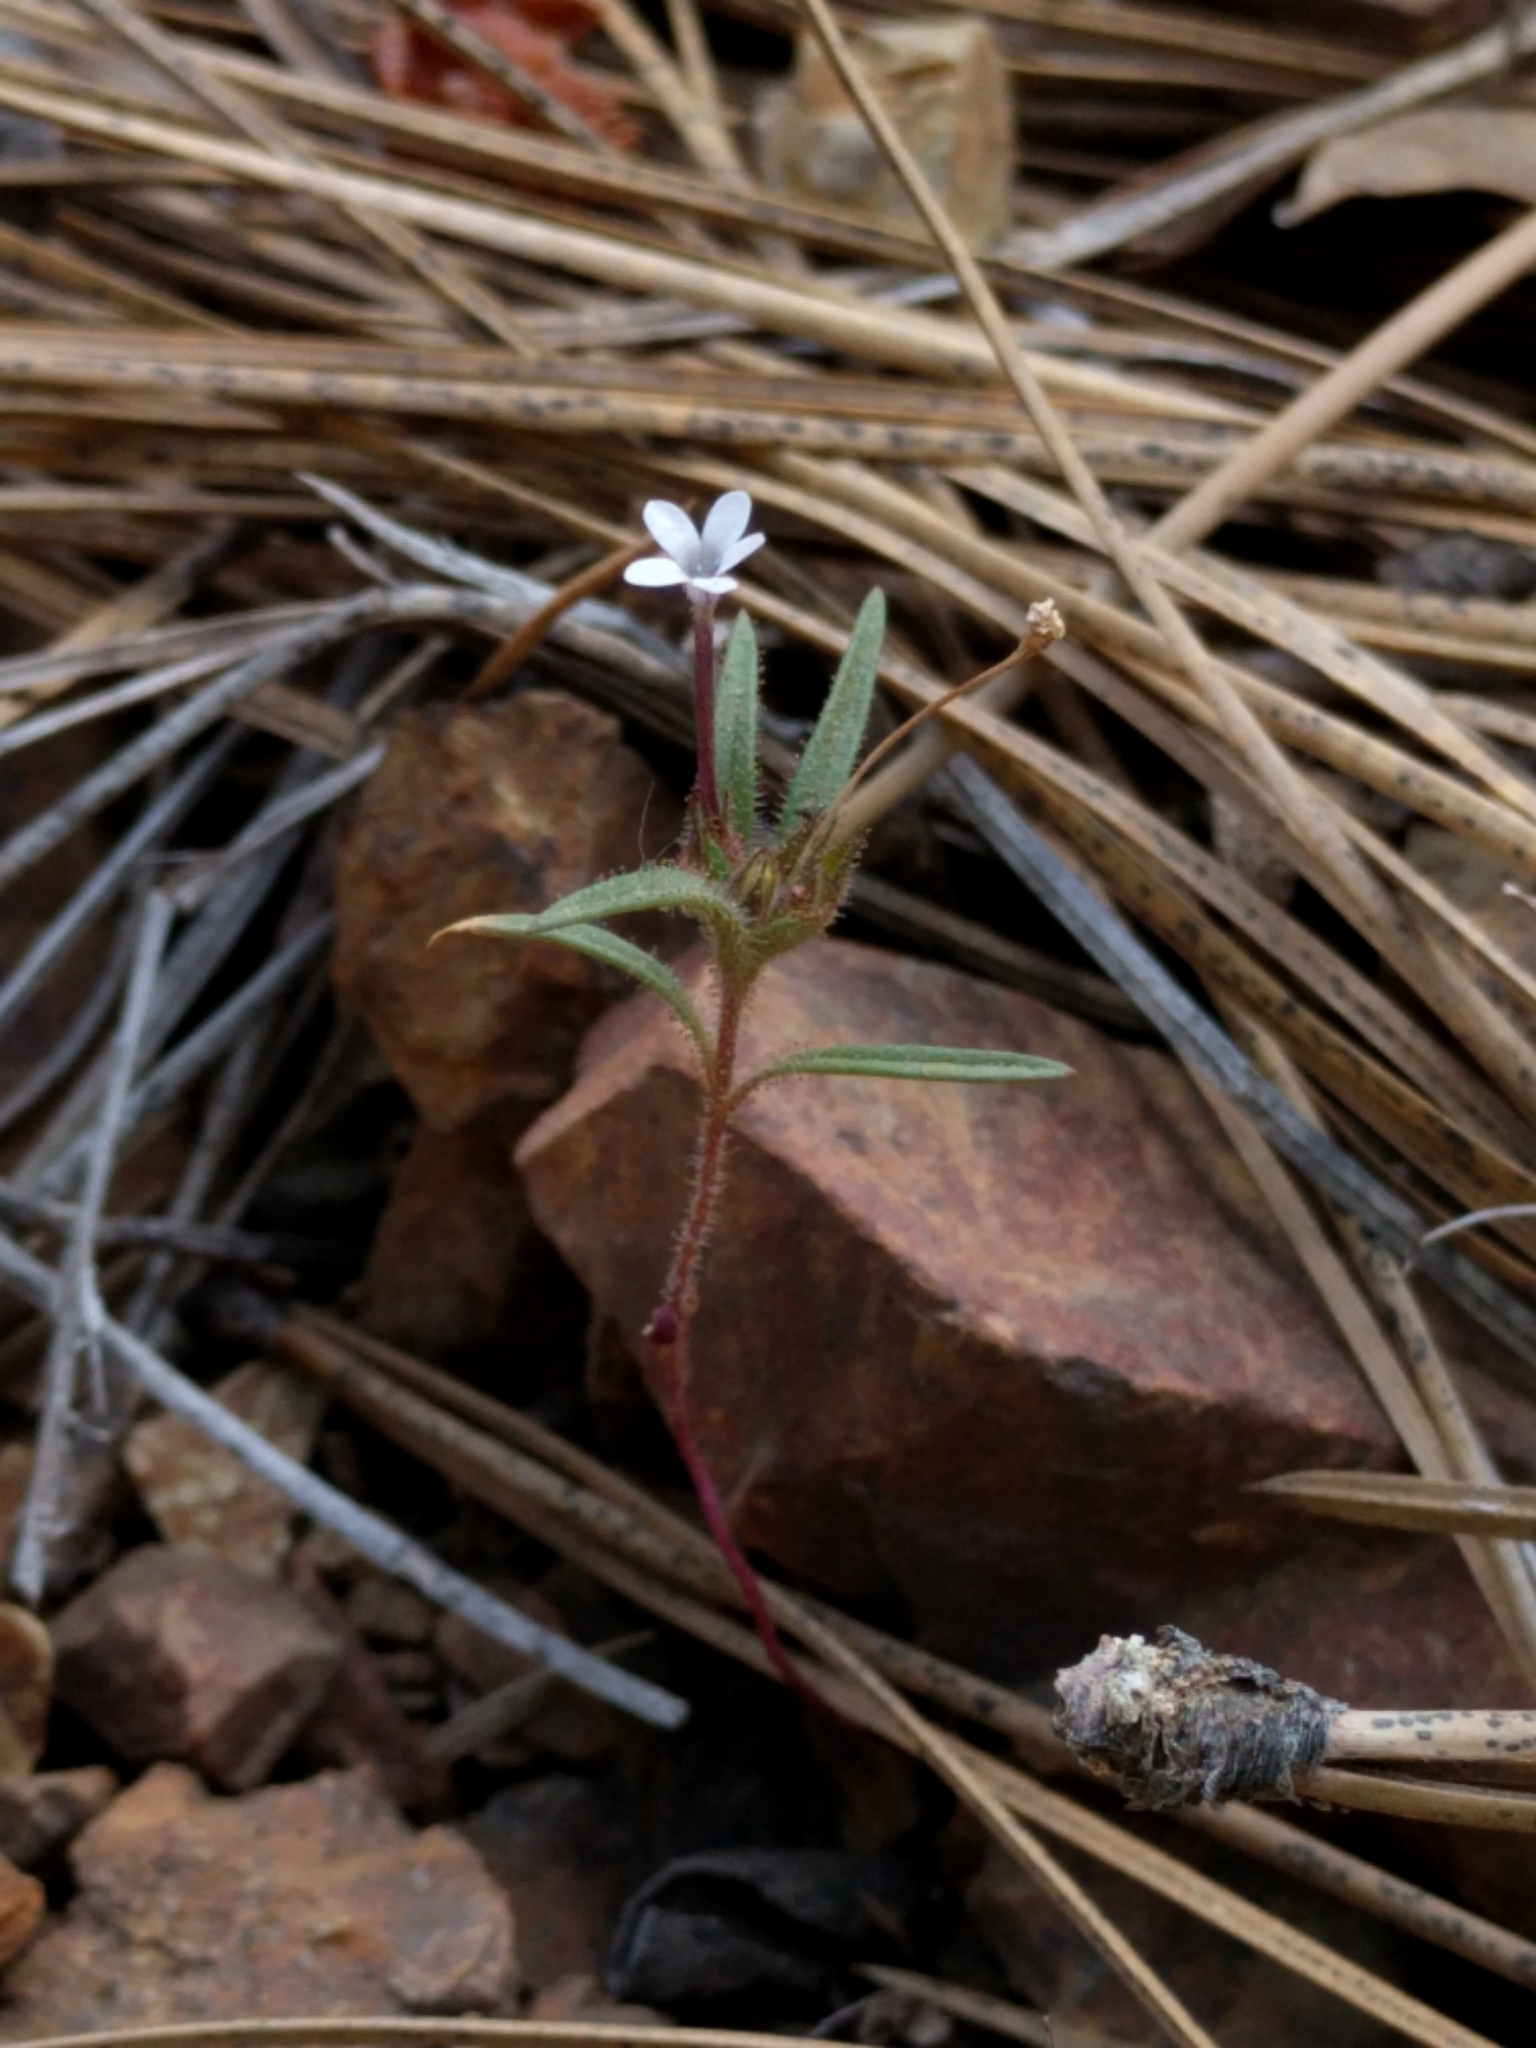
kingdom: Plantae
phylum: Tracheophyta
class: Magnoliopsida
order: Ericales
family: Polemoniaceae
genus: Collomia
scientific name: Collomia tinctoria
